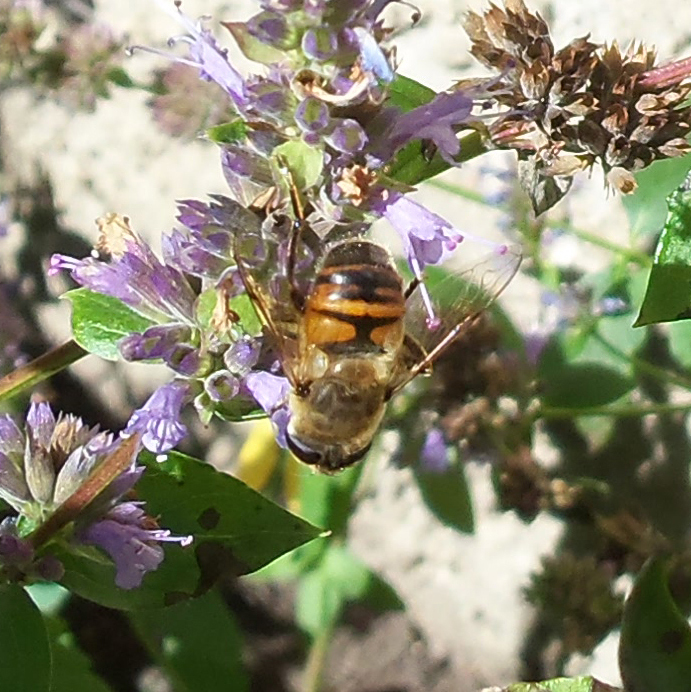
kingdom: Animalia
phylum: Arthropoda
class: Insecta
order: Diptera
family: Syrphidae
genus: Eristalis
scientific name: Eristalis tenax
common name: Drone fly
